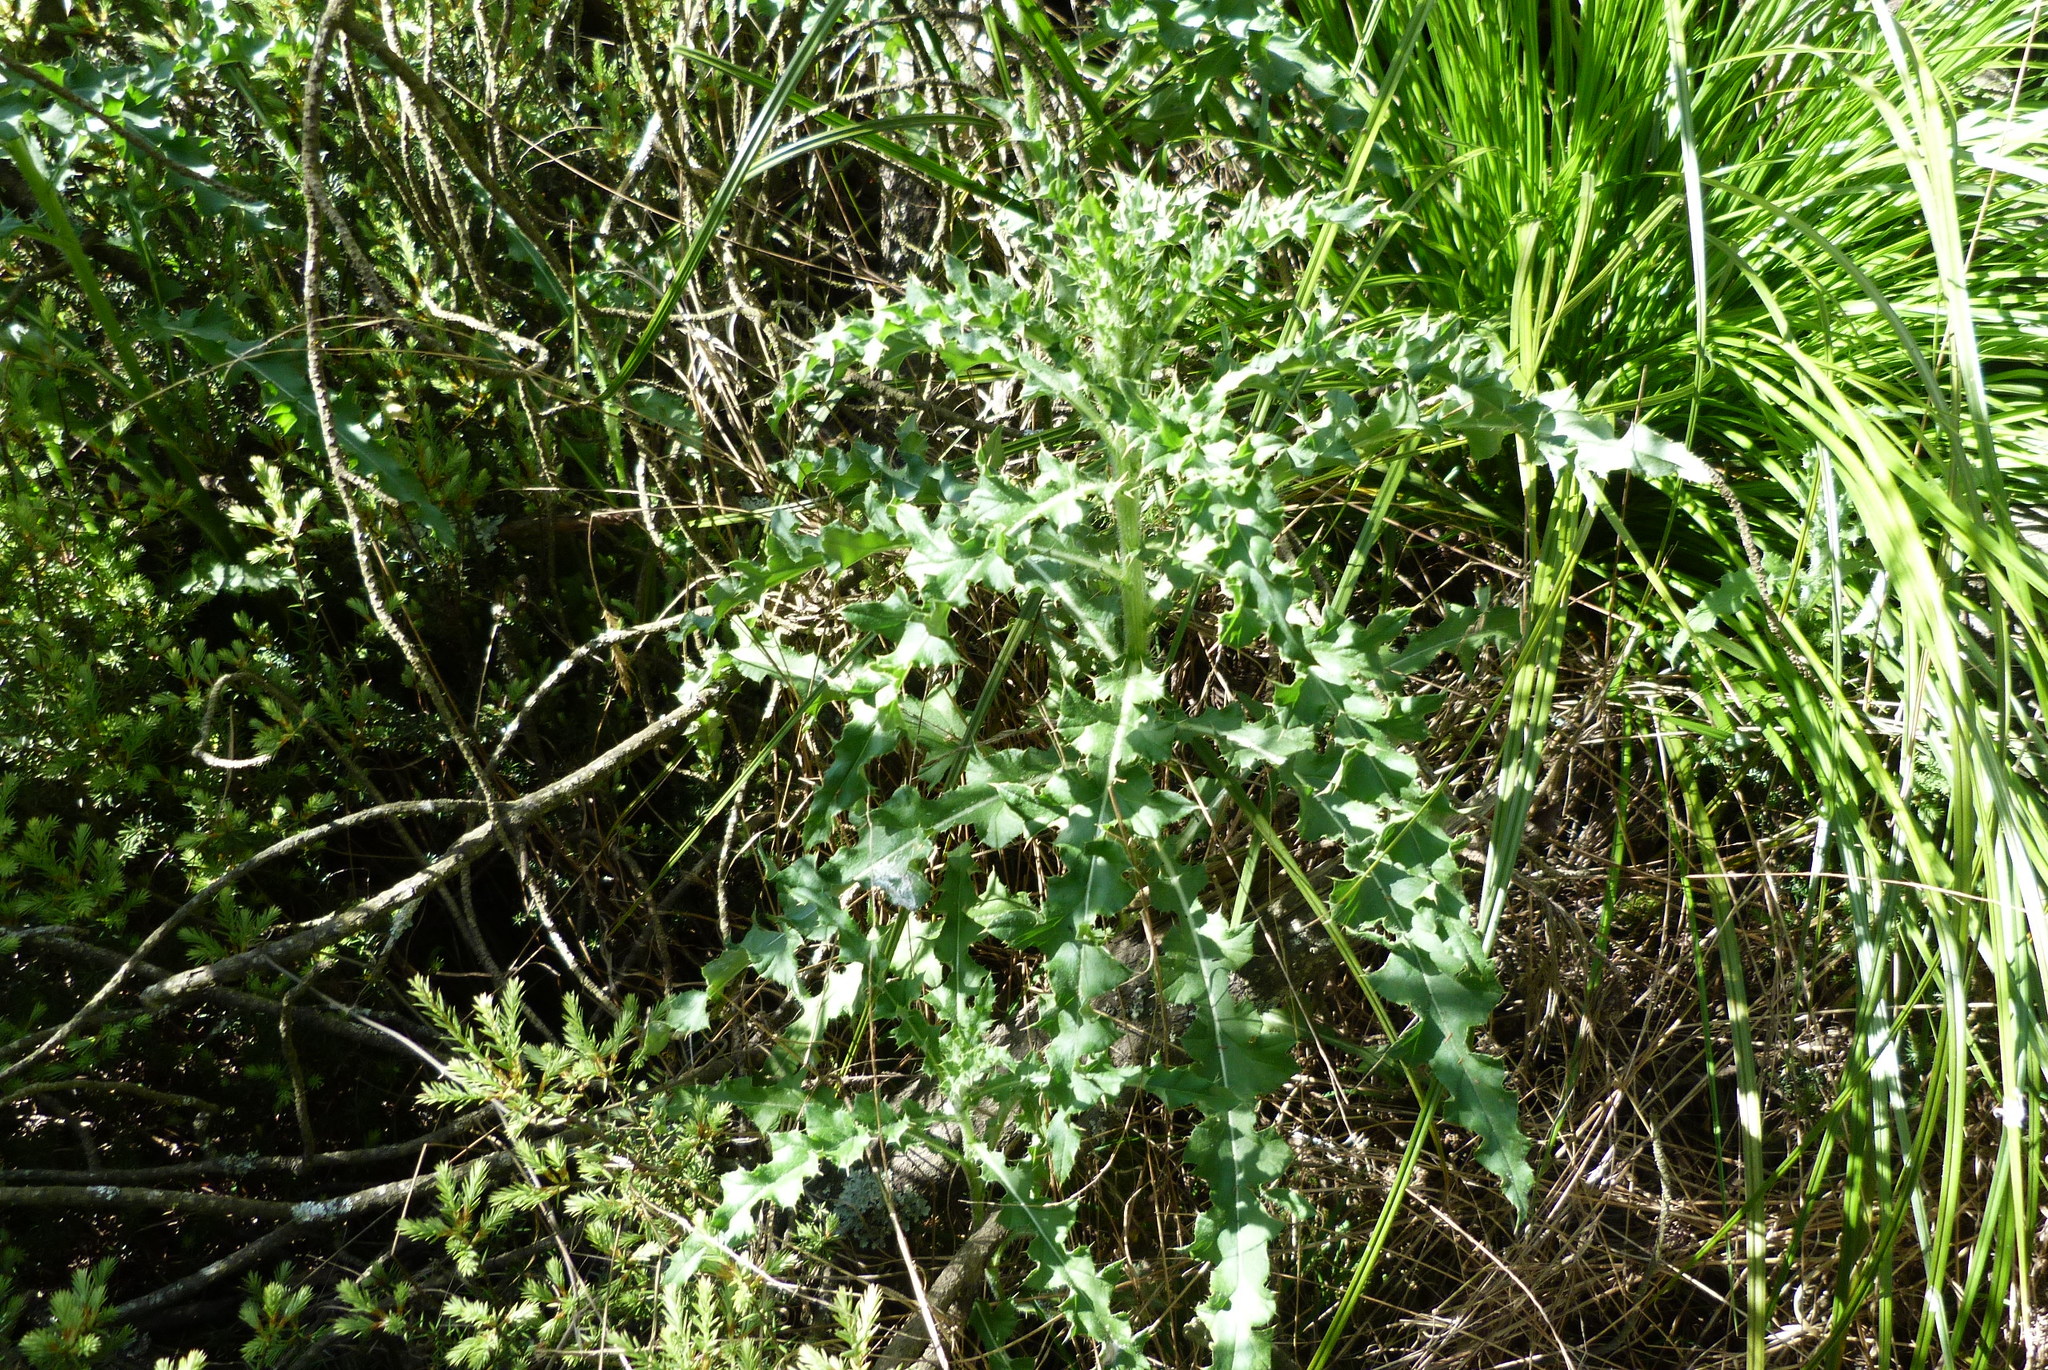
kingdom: Plantae
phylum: Tracheophyta
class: Magnoliopsida
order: Asterales
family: Asteraceae
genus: Cirsium
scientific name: Cirsium arvense
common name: Creeping thistle
